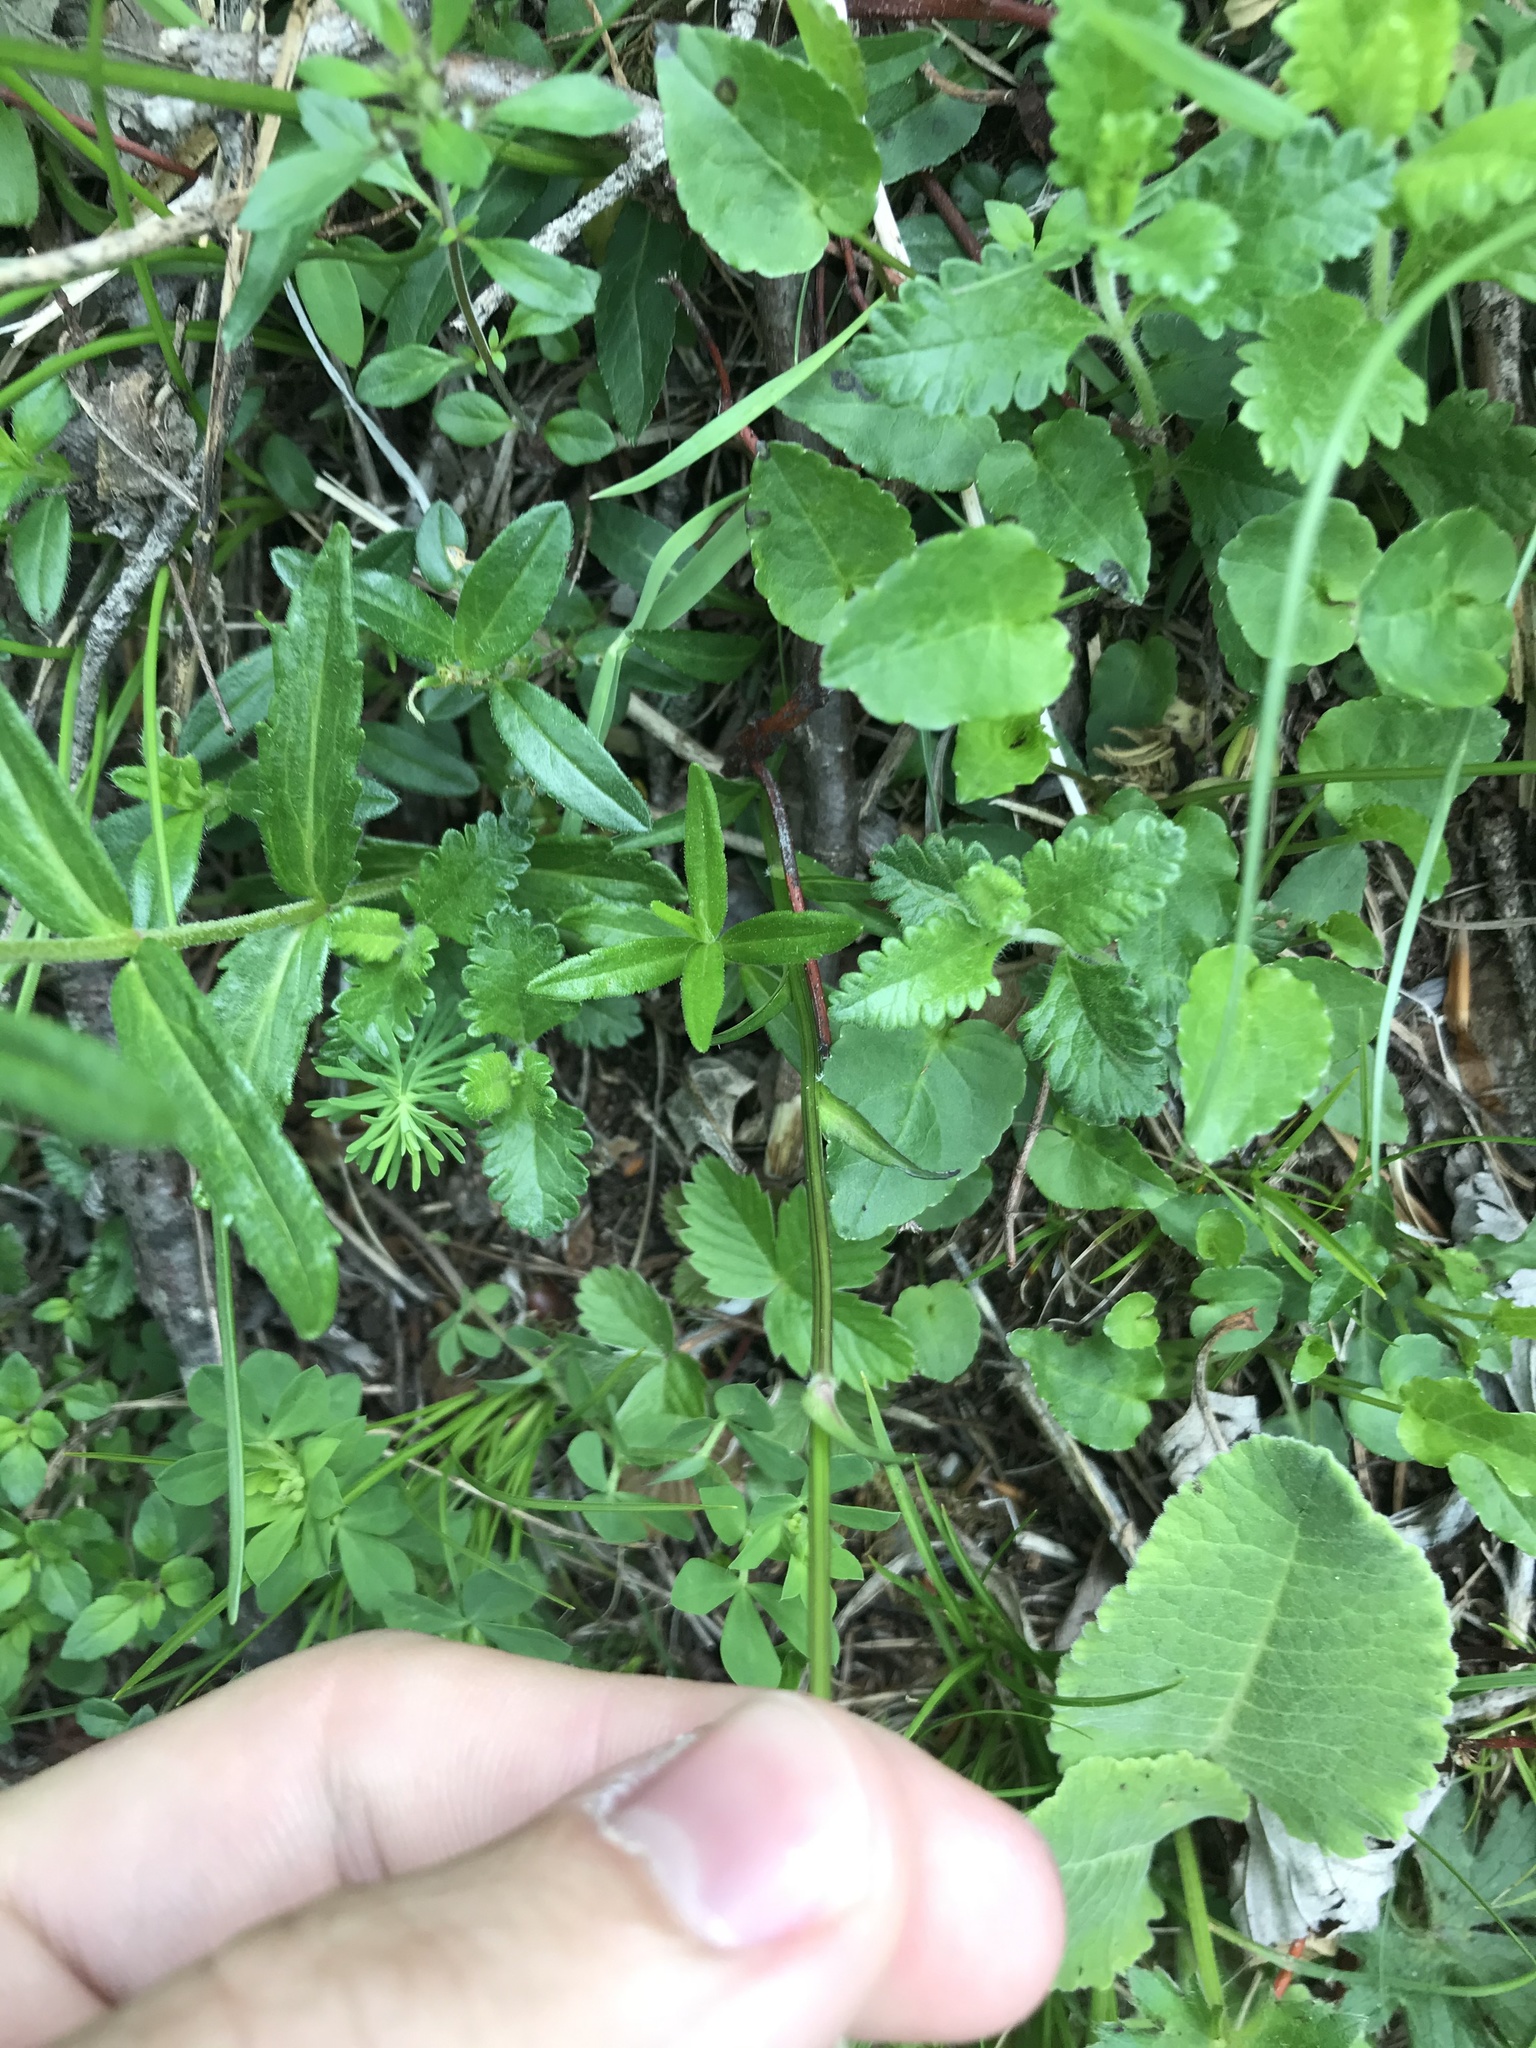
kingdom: Plantae
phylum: Tracheophyta
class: Magnoliopsida
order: Asterales
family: Campanulaceae
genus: Phyteuma
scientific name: Phyteuma orbiculare
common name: Round-headed rampion
